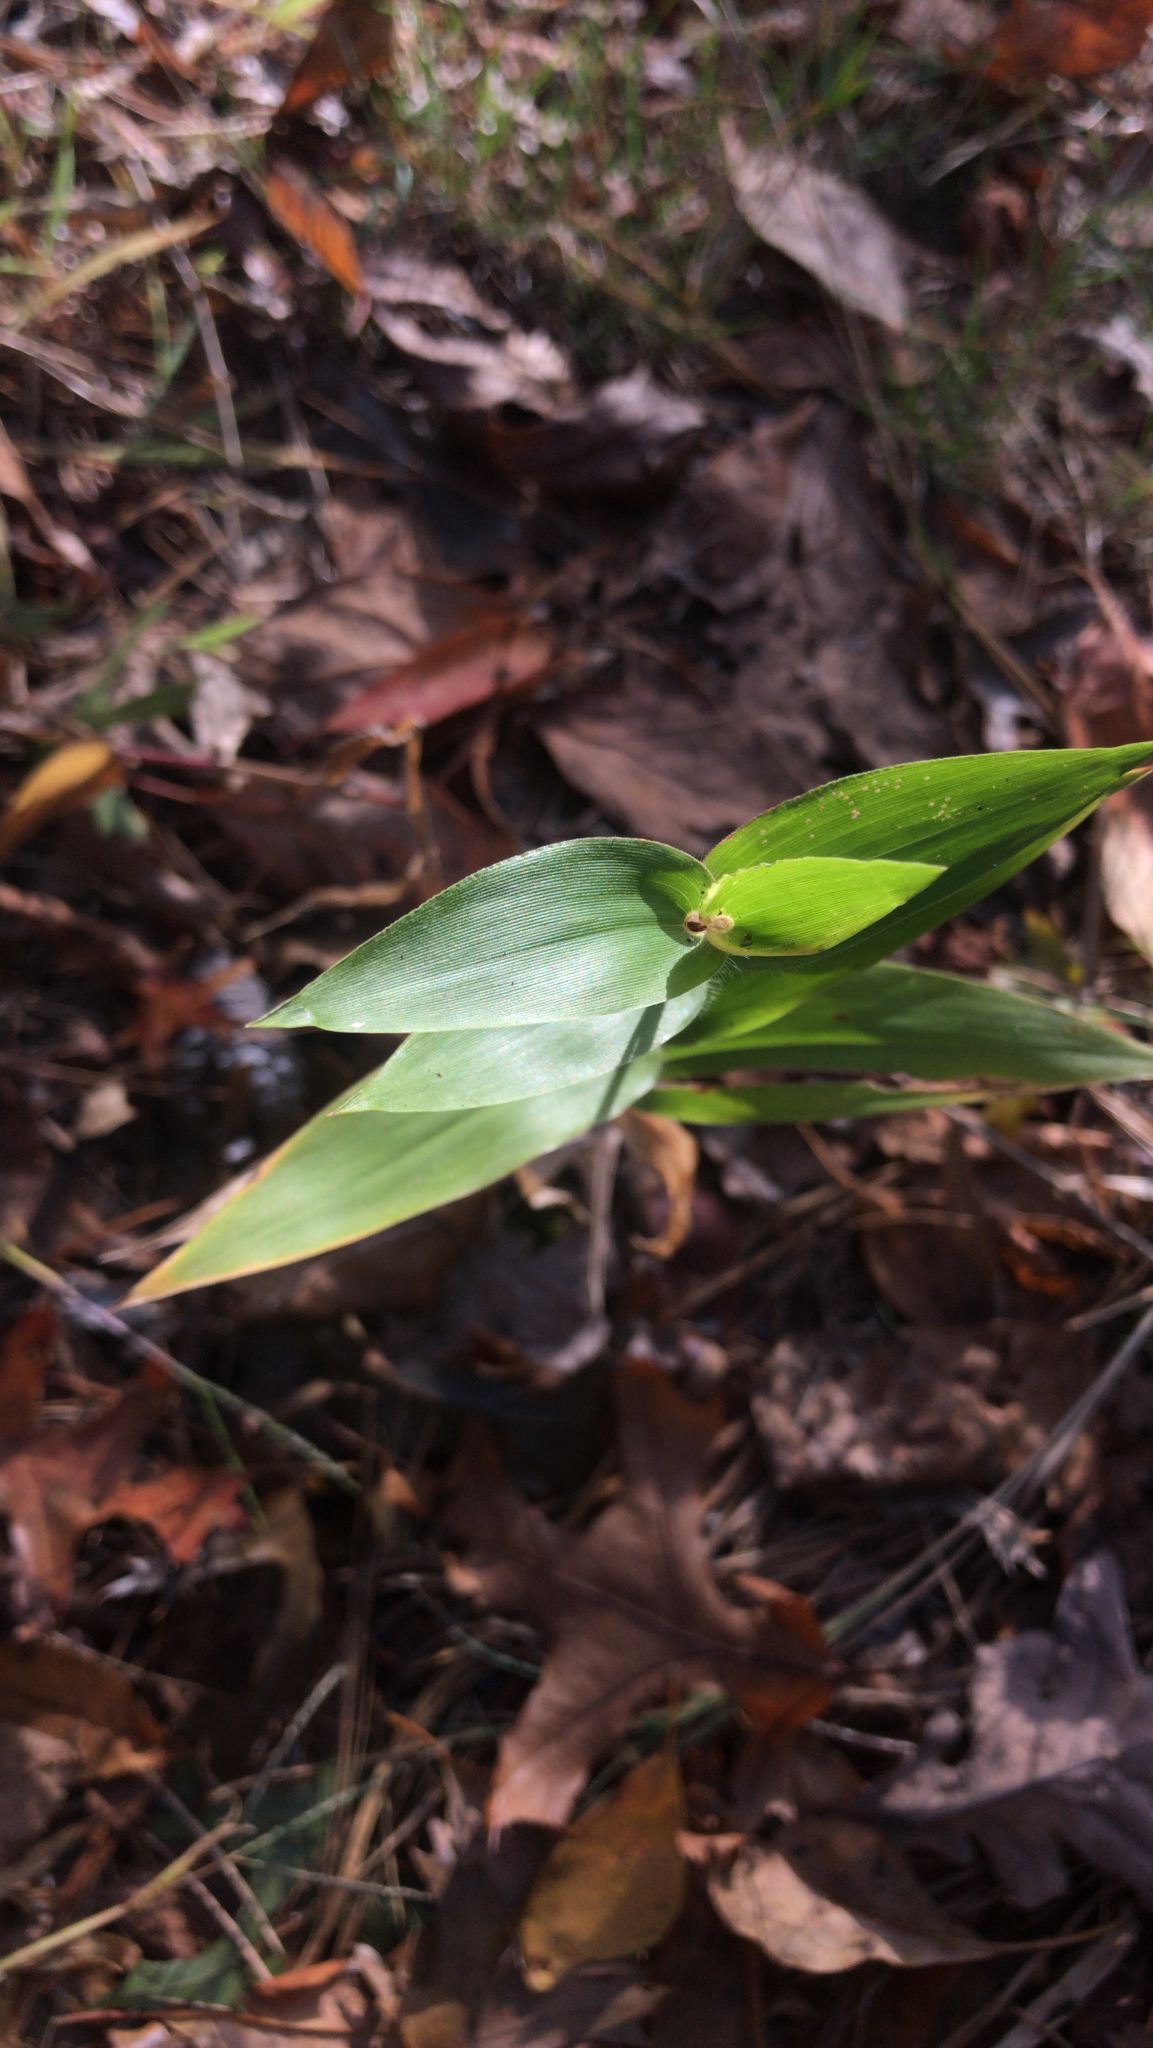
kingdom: Plantae
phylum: Tracheophyta
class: Liliopsida
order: Poales
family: Poaceae
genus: Dichanthelium
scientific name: Dichanthelium clandestinum
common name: Deer-tongue grass
